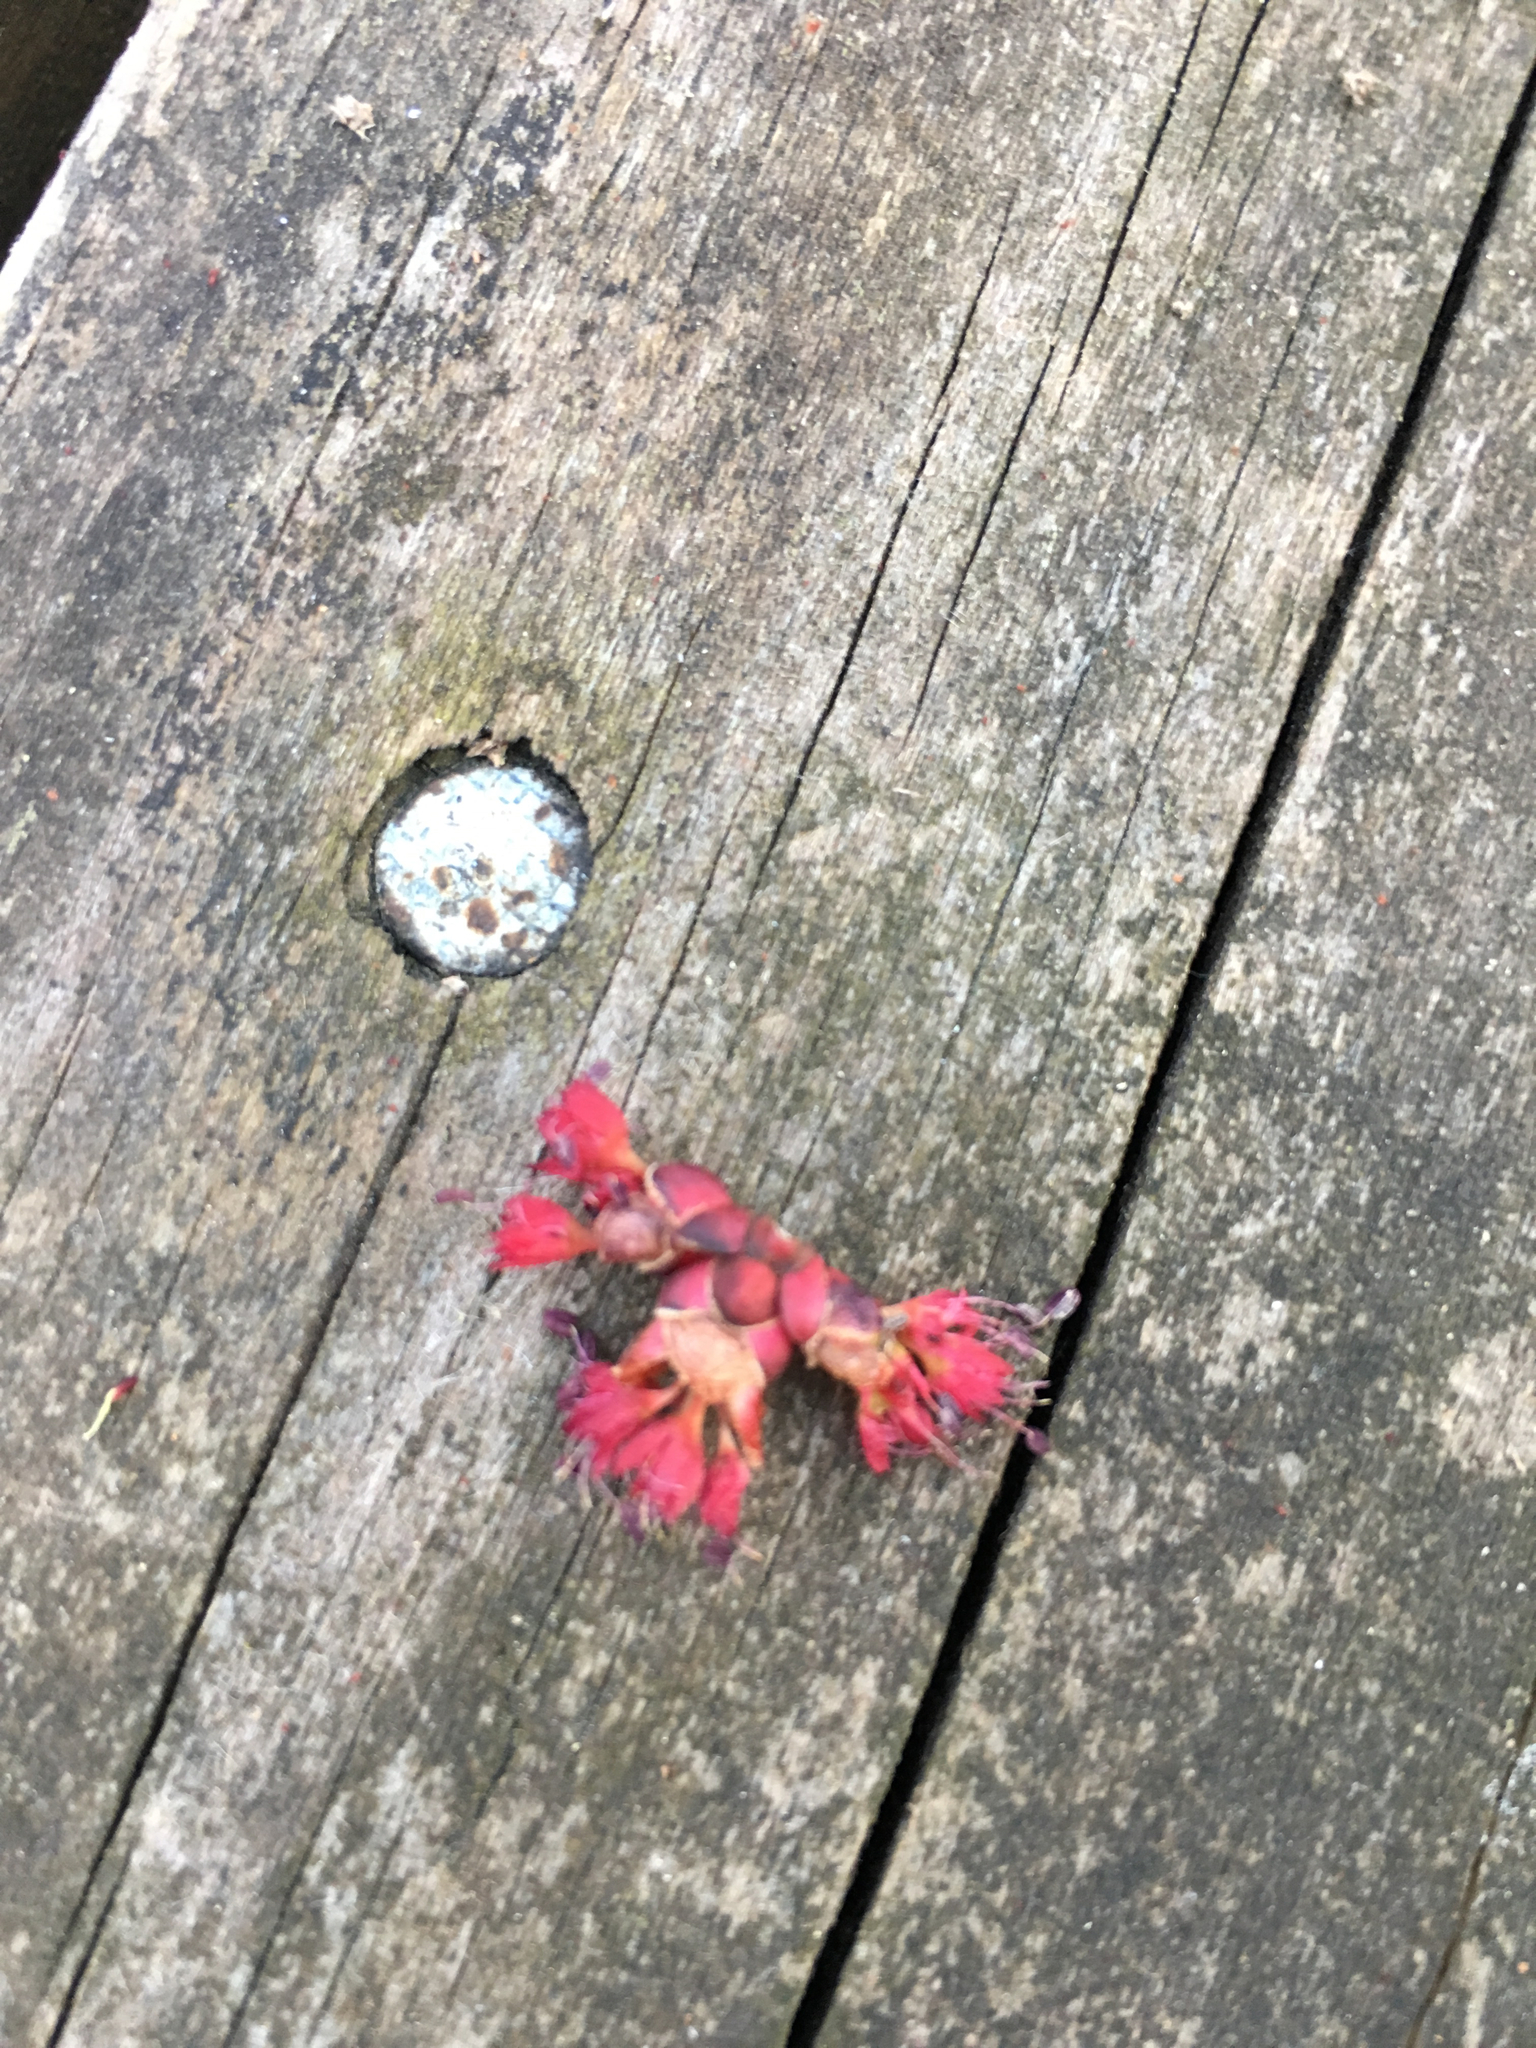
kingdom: Plantae
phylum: Tracheophyta
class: Magnoliopsida
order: Sapindales
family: Sapindaceae
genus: Acer
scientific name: Acer rubrum
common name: Red maple
